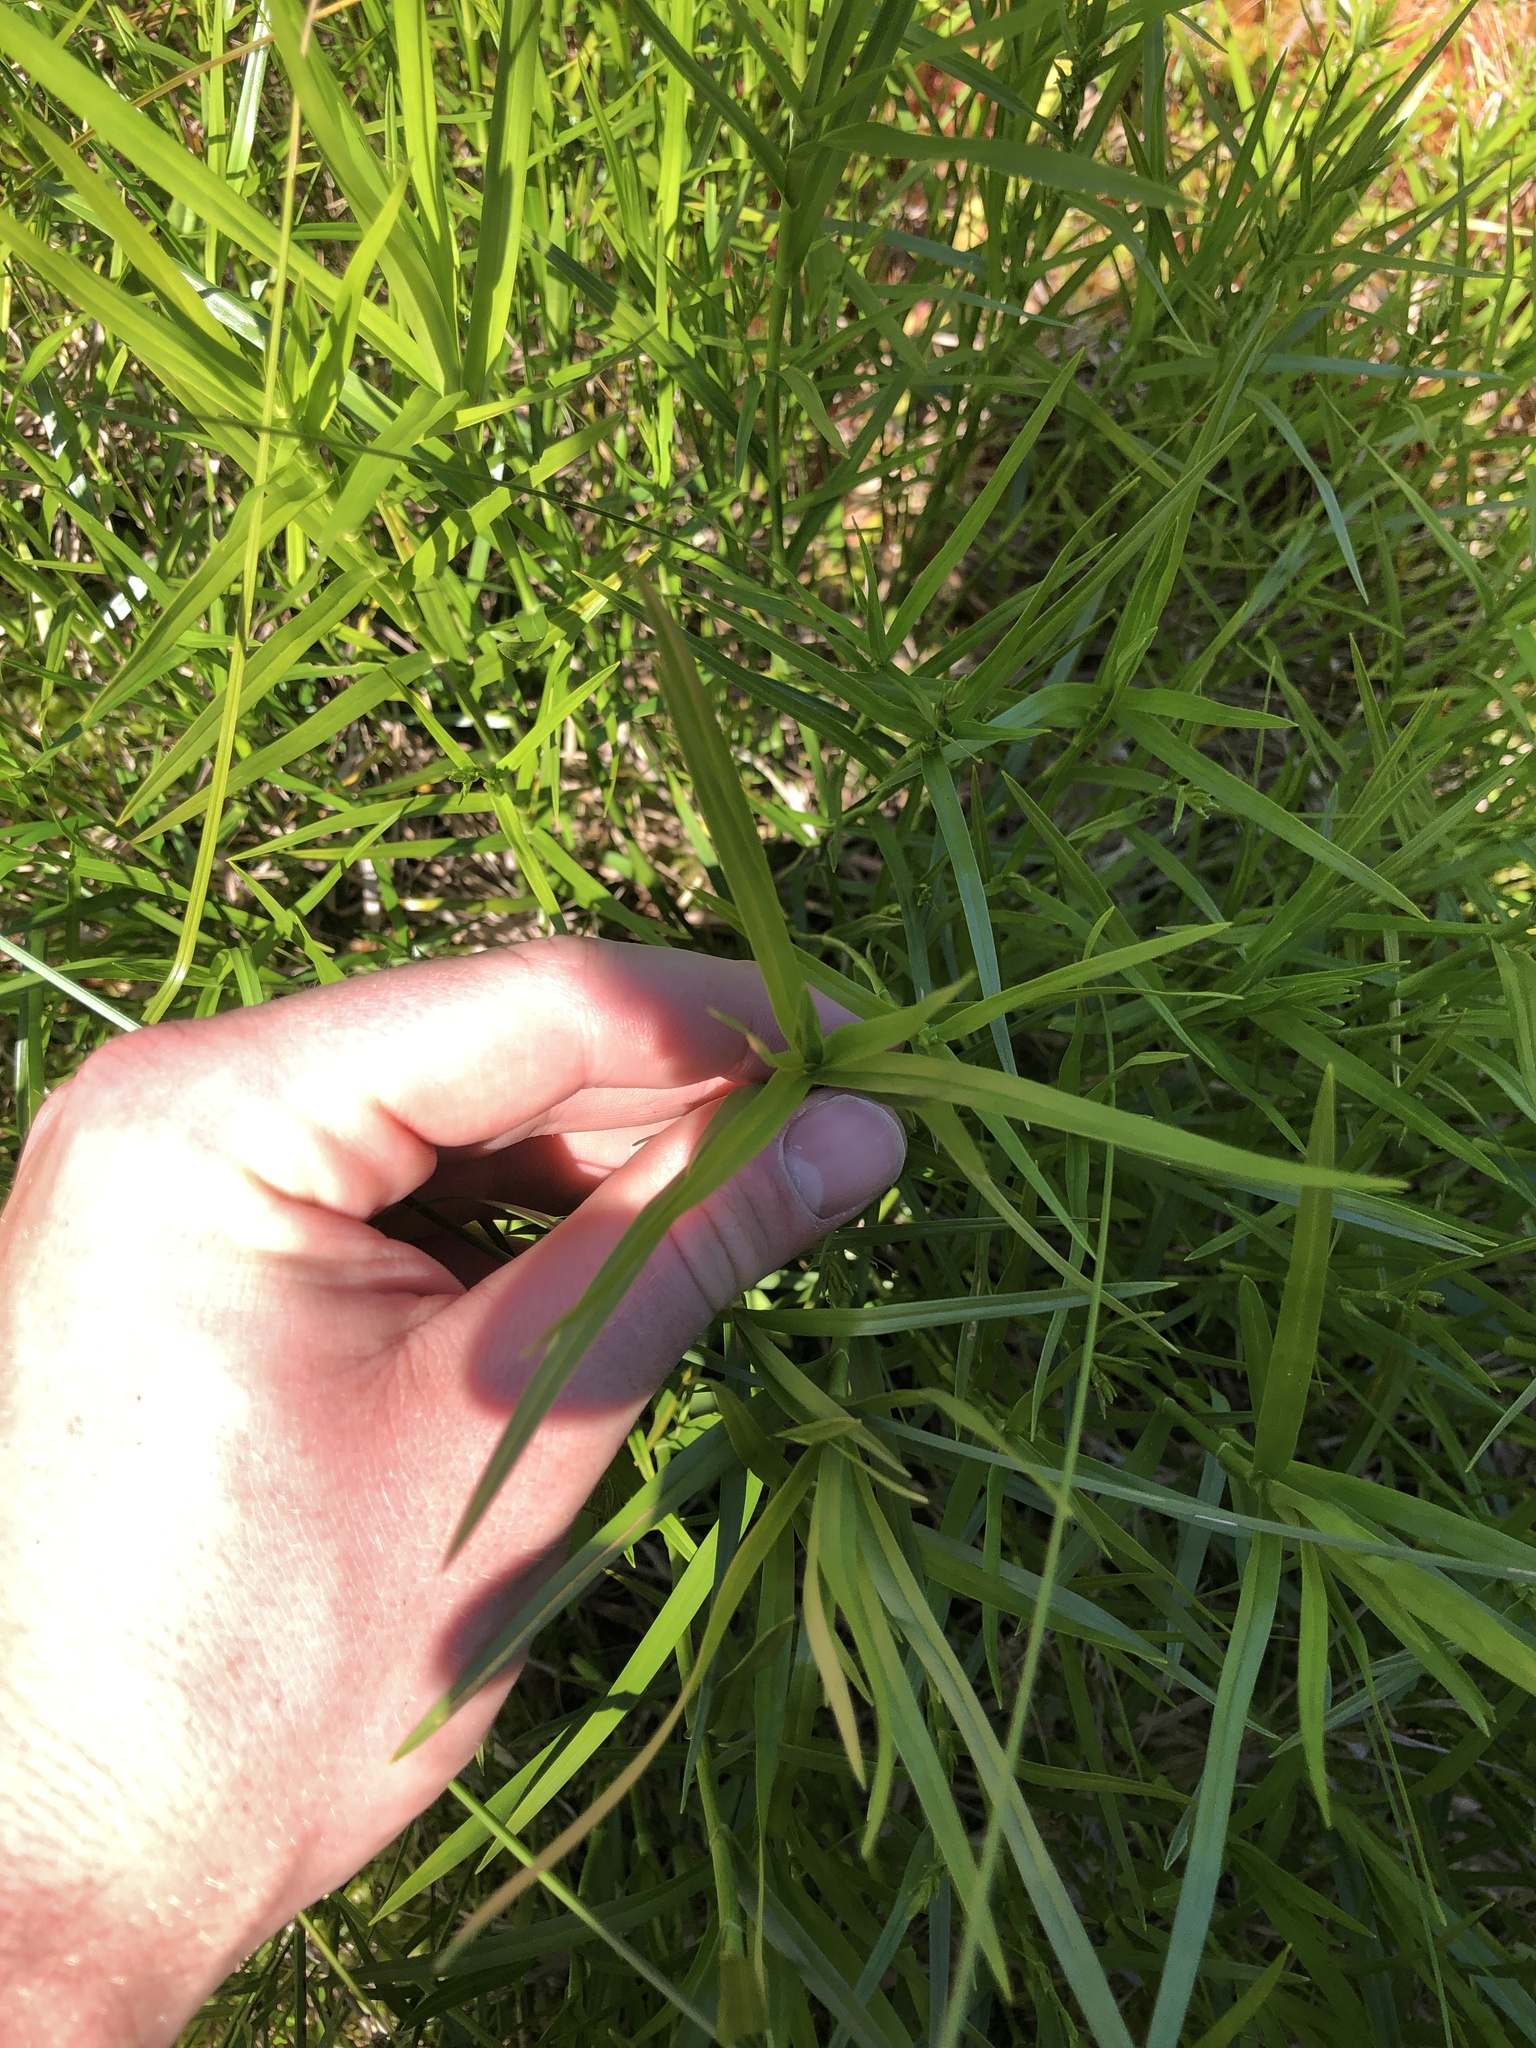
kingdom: Plantae
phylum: Tracheophyta
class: Liliopsida
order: Poales
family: Cyperaceae
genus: Dulichium
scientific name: Dulichium arundinaceum
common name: Three-way sedge
